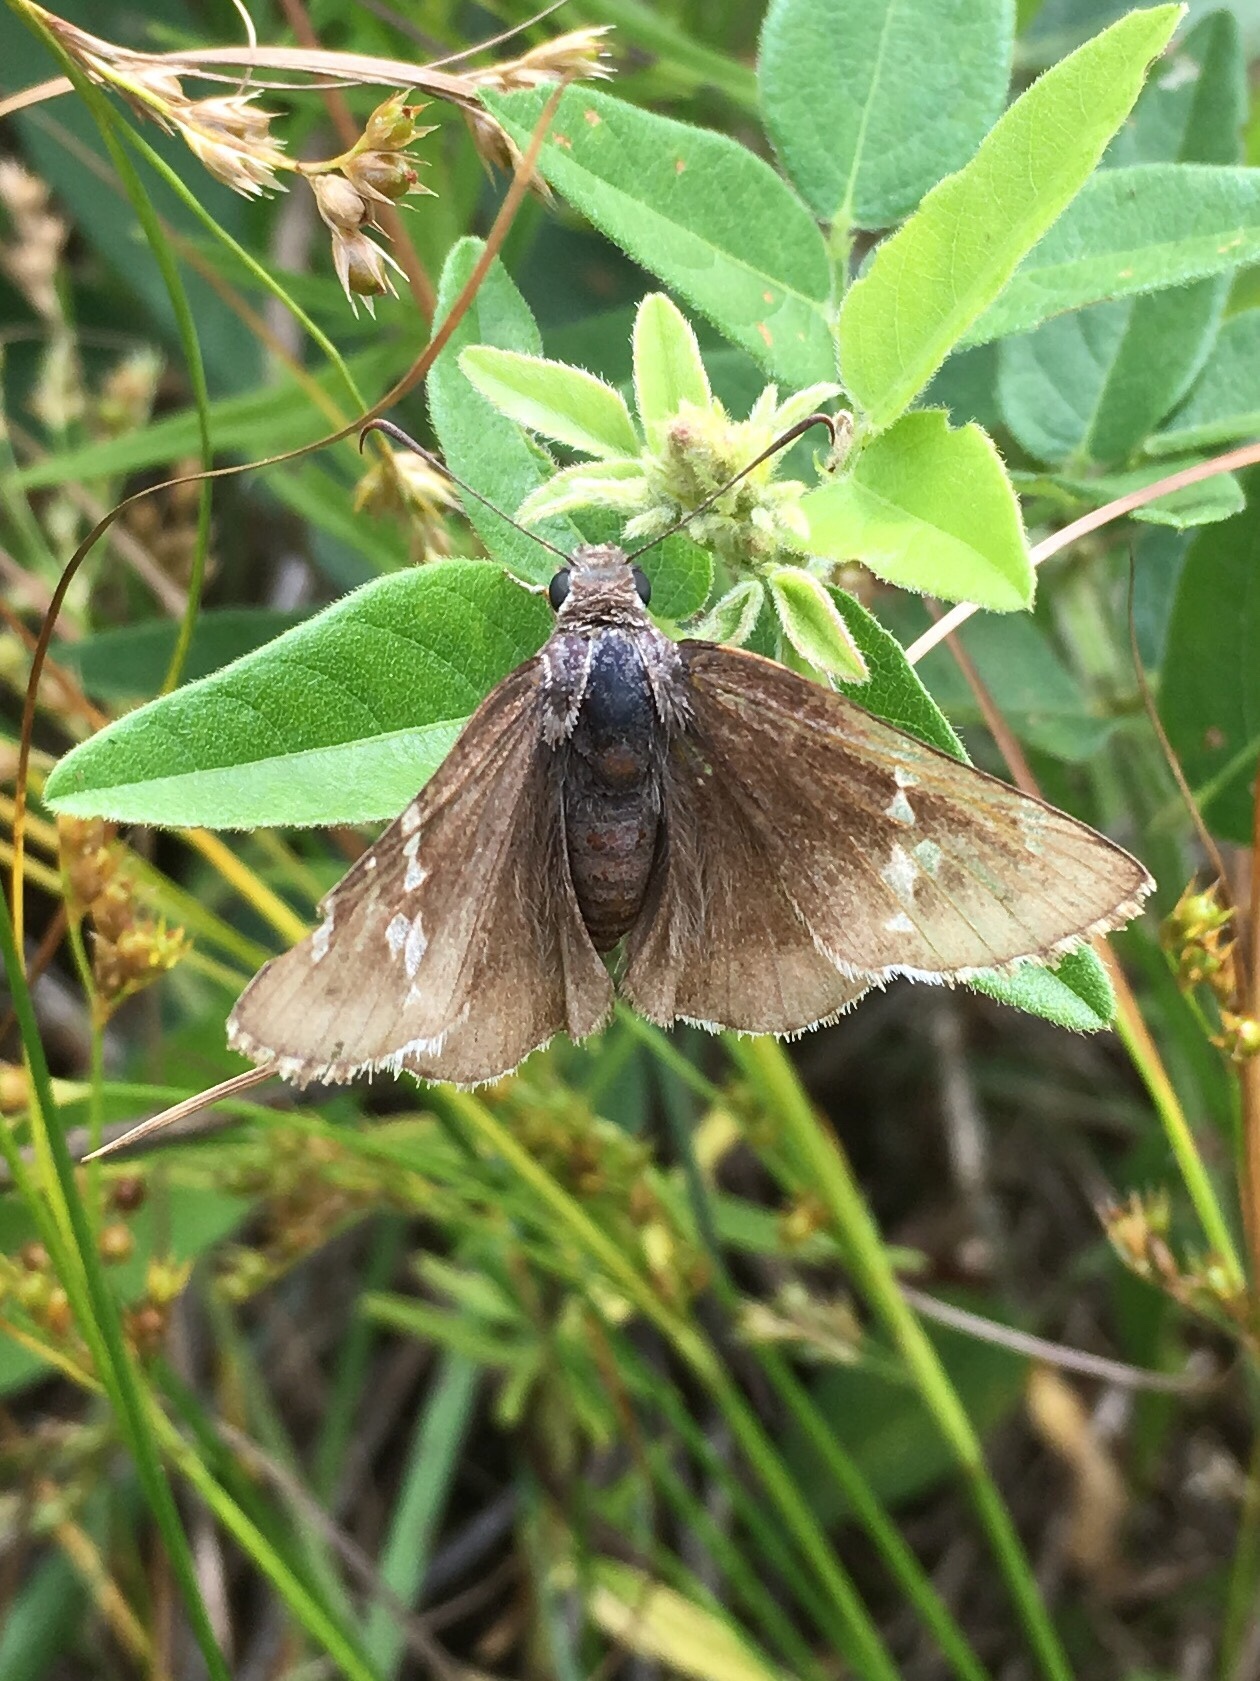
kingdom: Animalia
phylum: Arthropoda
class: Insecta
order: Lepidoptera
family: Hesperiidae
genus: Thorybes
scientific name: Thorybes daunus
